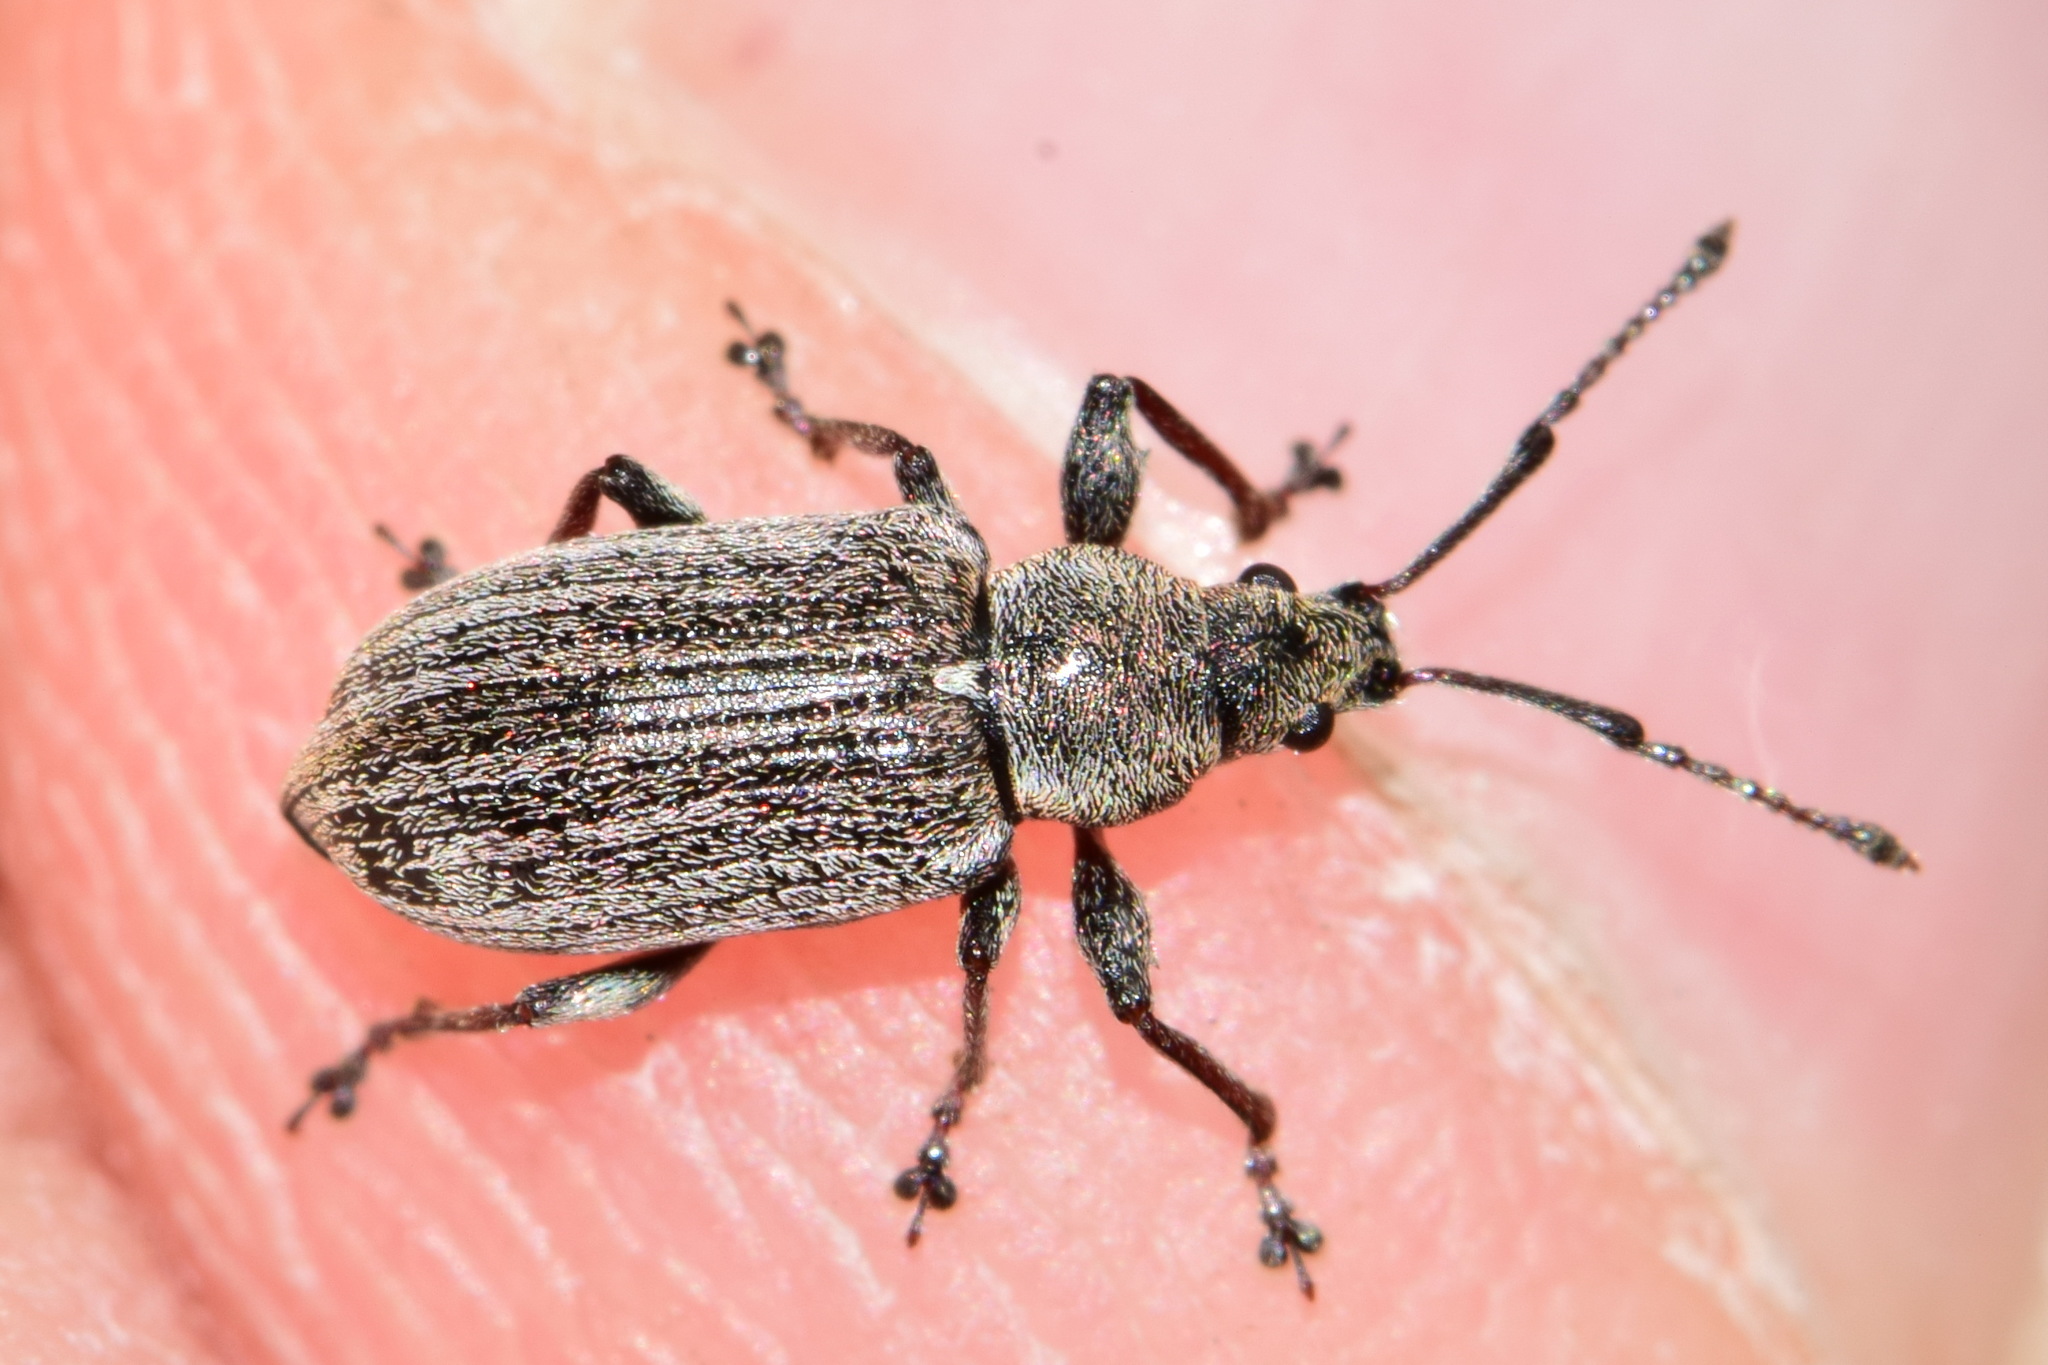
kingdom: Animalia
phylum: Arthropoda
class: Insecta
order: Coleoptera
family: Curculionidae
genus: Phyllobius
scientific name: Phyllobius pyri
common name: Common leaf weevil
